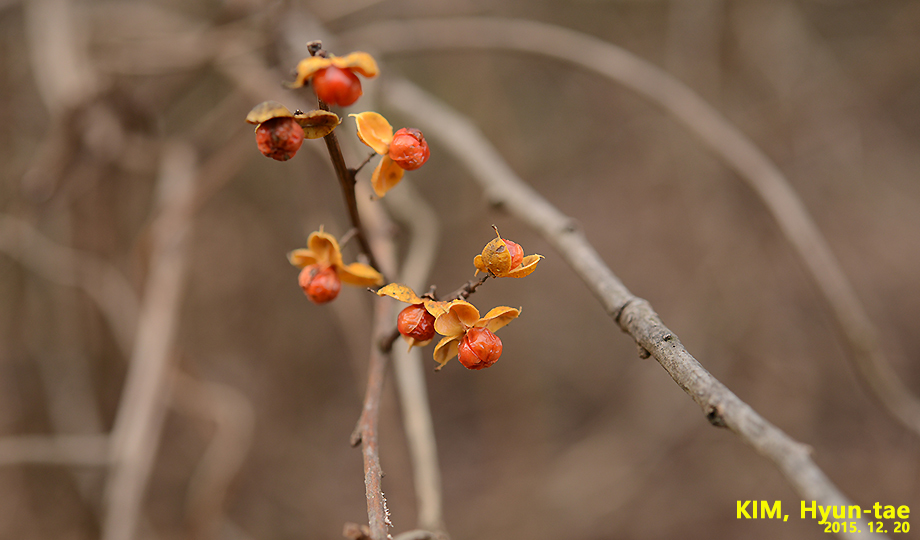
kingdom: Plantae
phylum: Tracheophyta
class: Magnoliopsida
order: Celastrales
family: Celastraceae
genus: Celastrus
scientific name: Celastrus orbiculatus
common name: Oriental bittersweet
